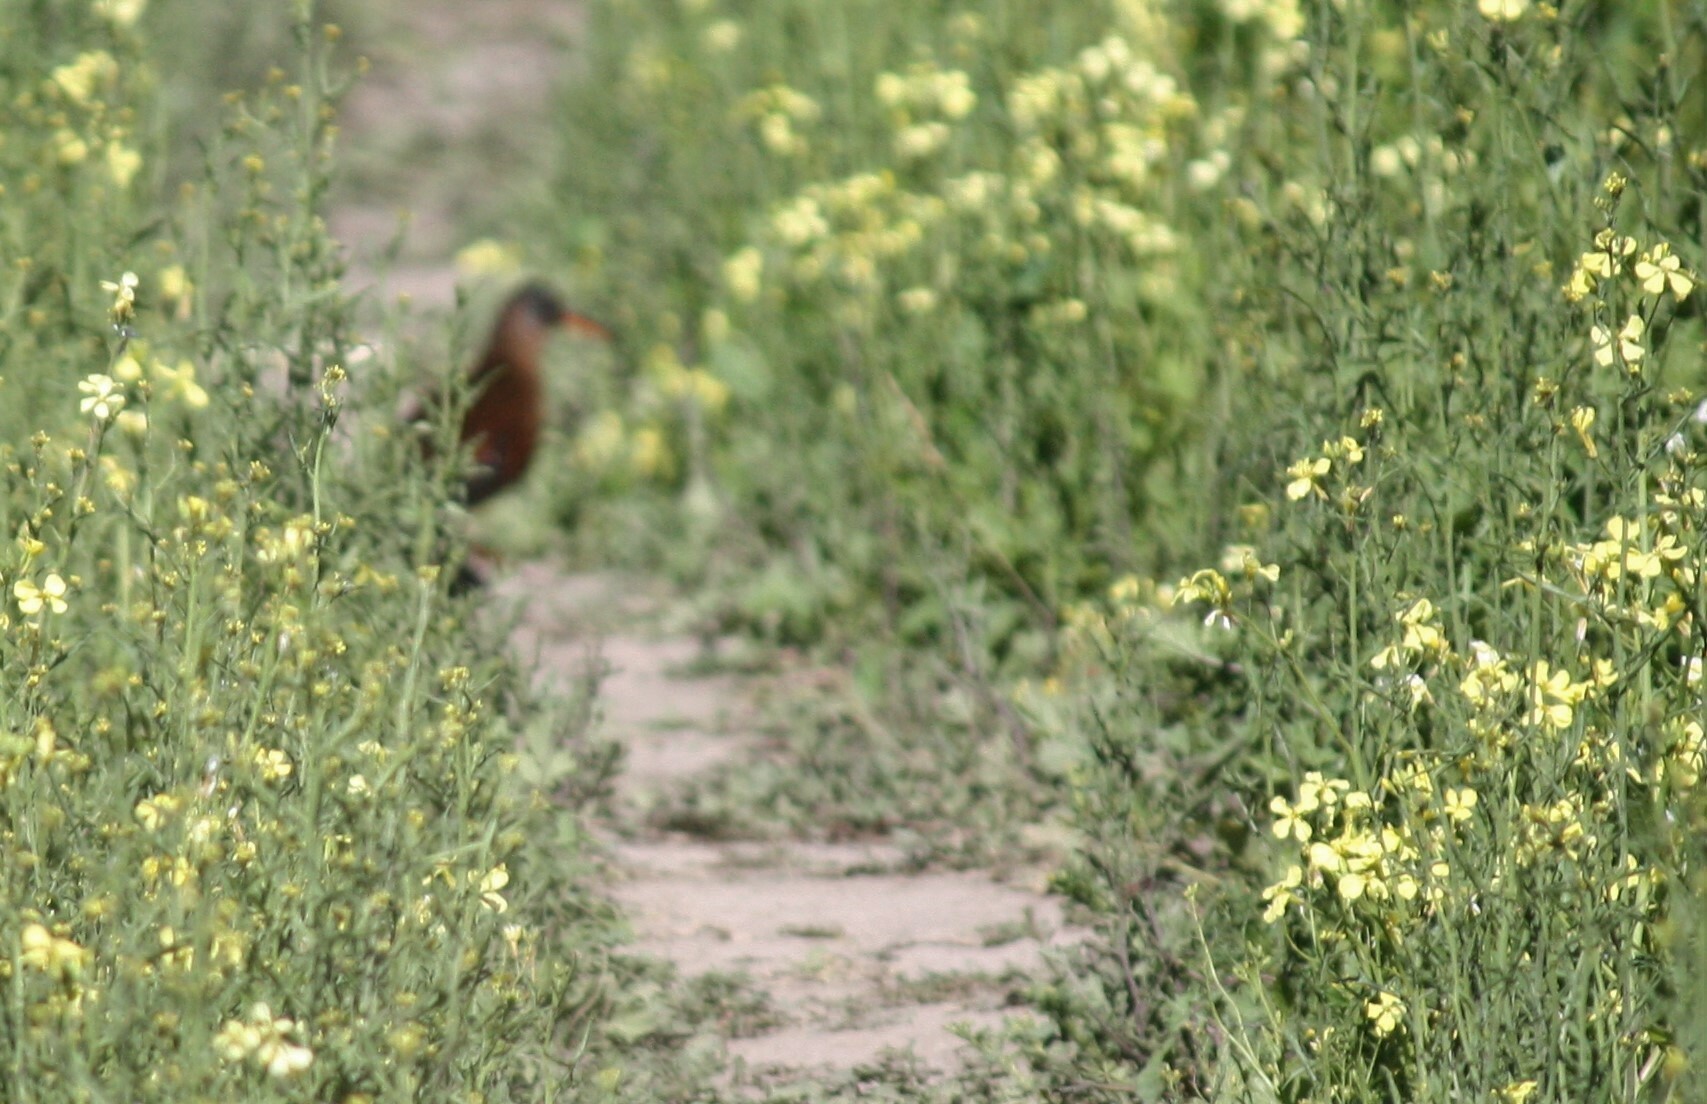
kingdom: Animalia
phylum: Chordata
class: Aves
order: Gruiformes
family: Rallidae
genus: Rallus
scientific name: Rallus limicola
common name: Virginia rail
